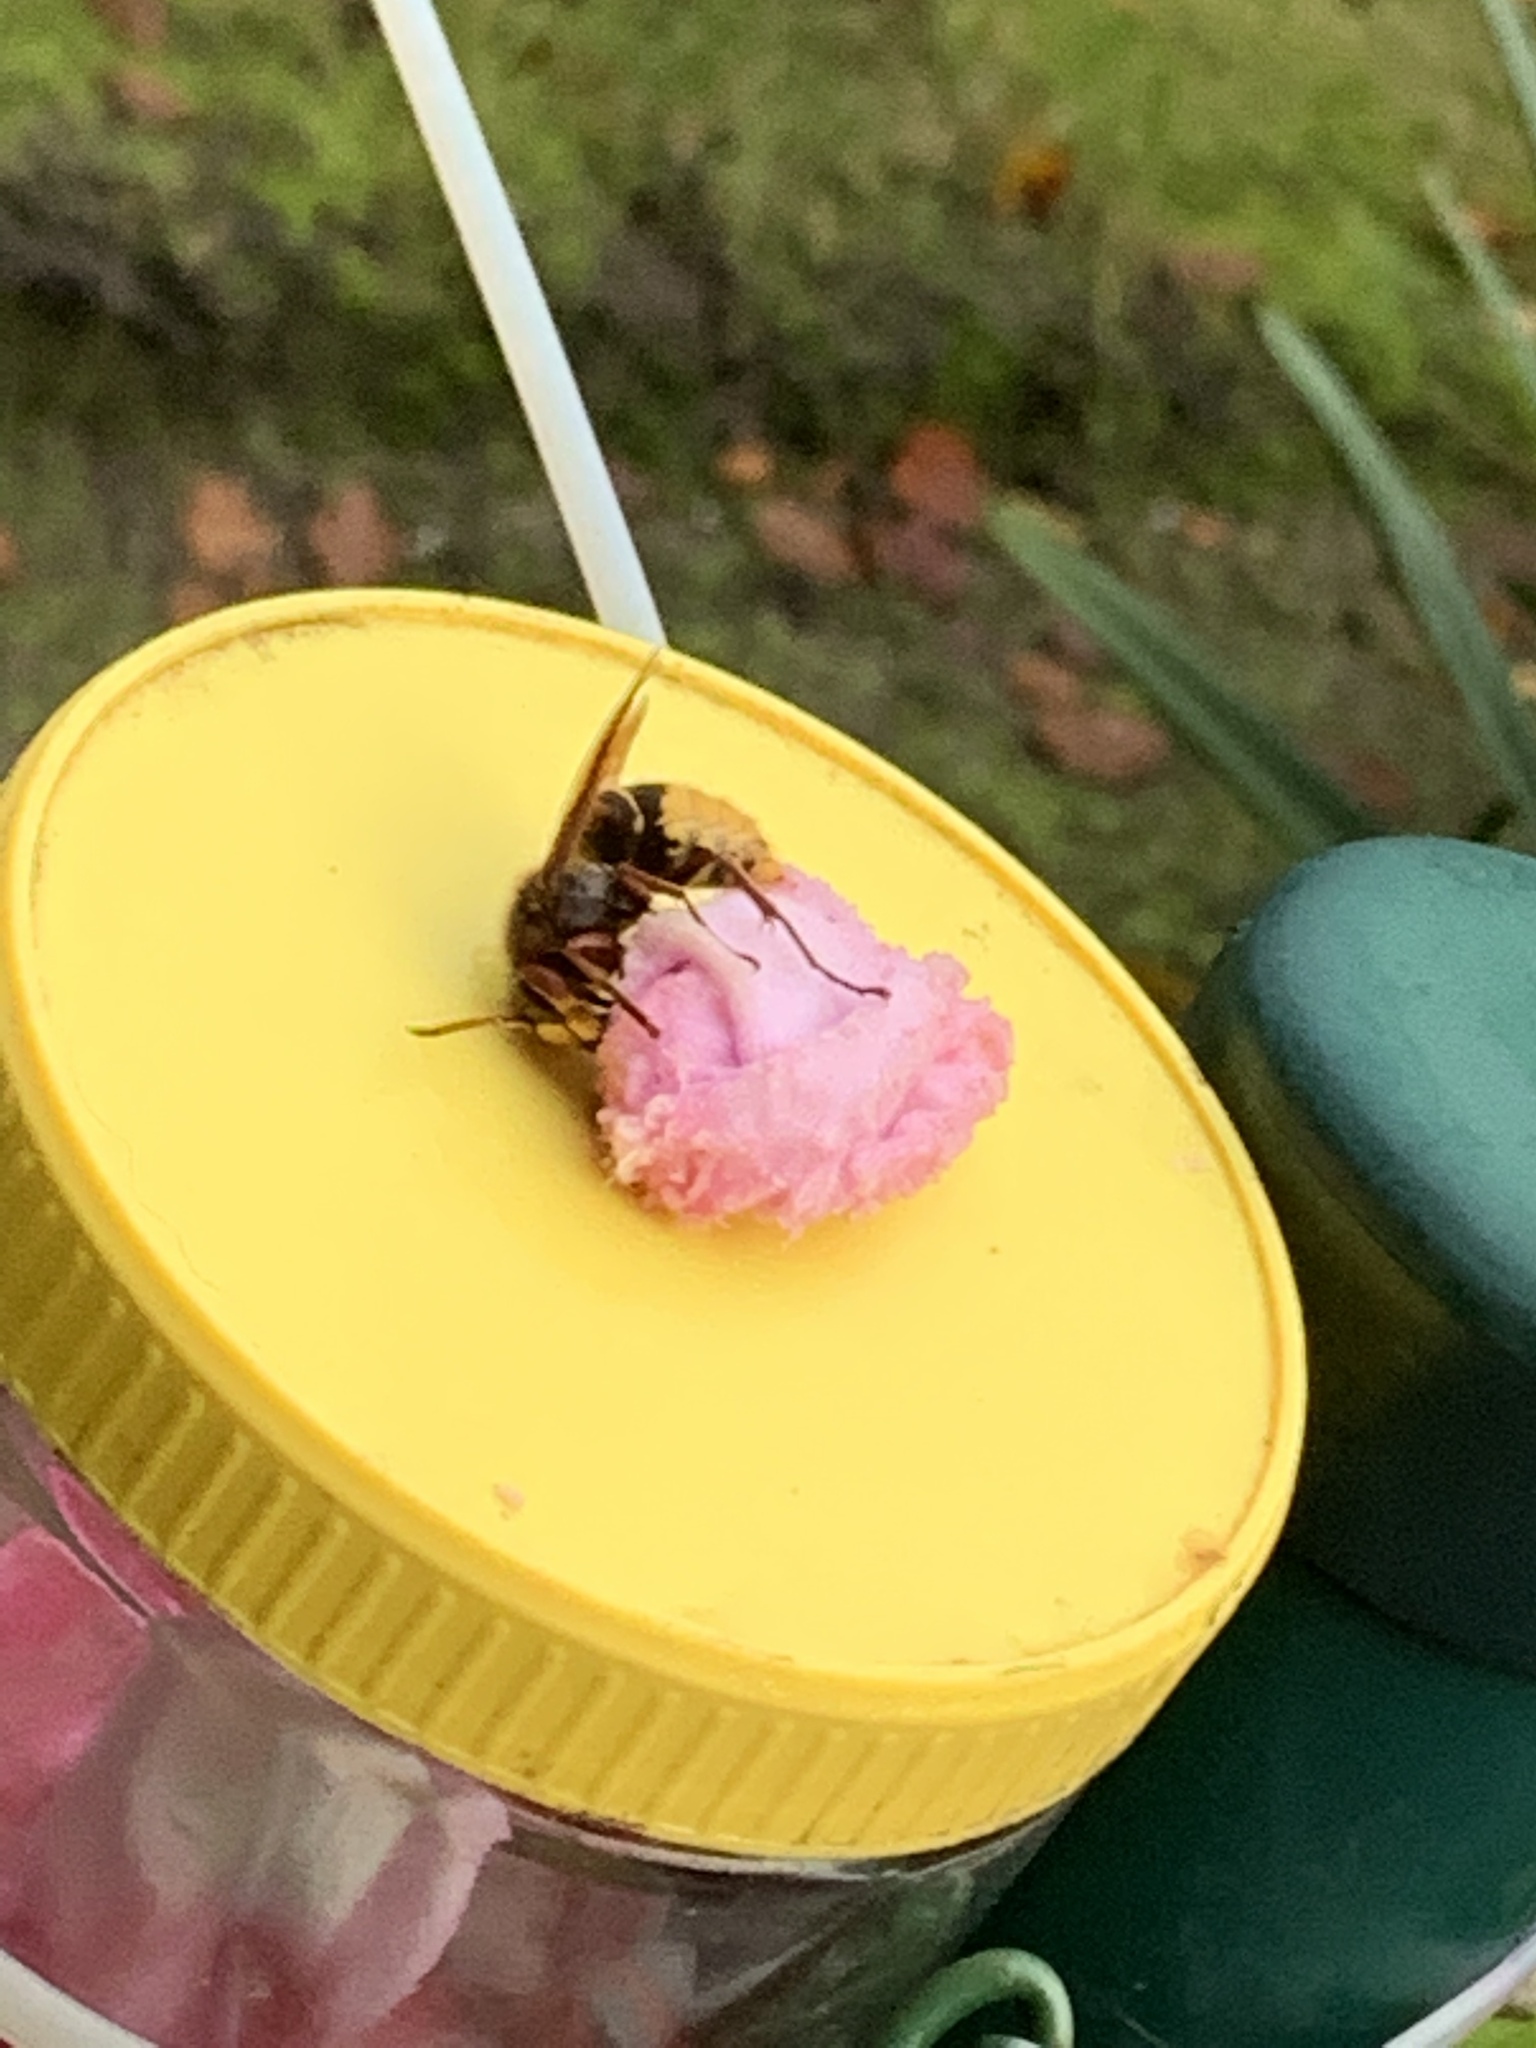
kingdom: Animalia
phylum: Arthropoda
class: Insecta
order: Hymenoptera
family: Vespidae
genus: Vespa
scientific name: Vespa crabro
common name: Hornet
